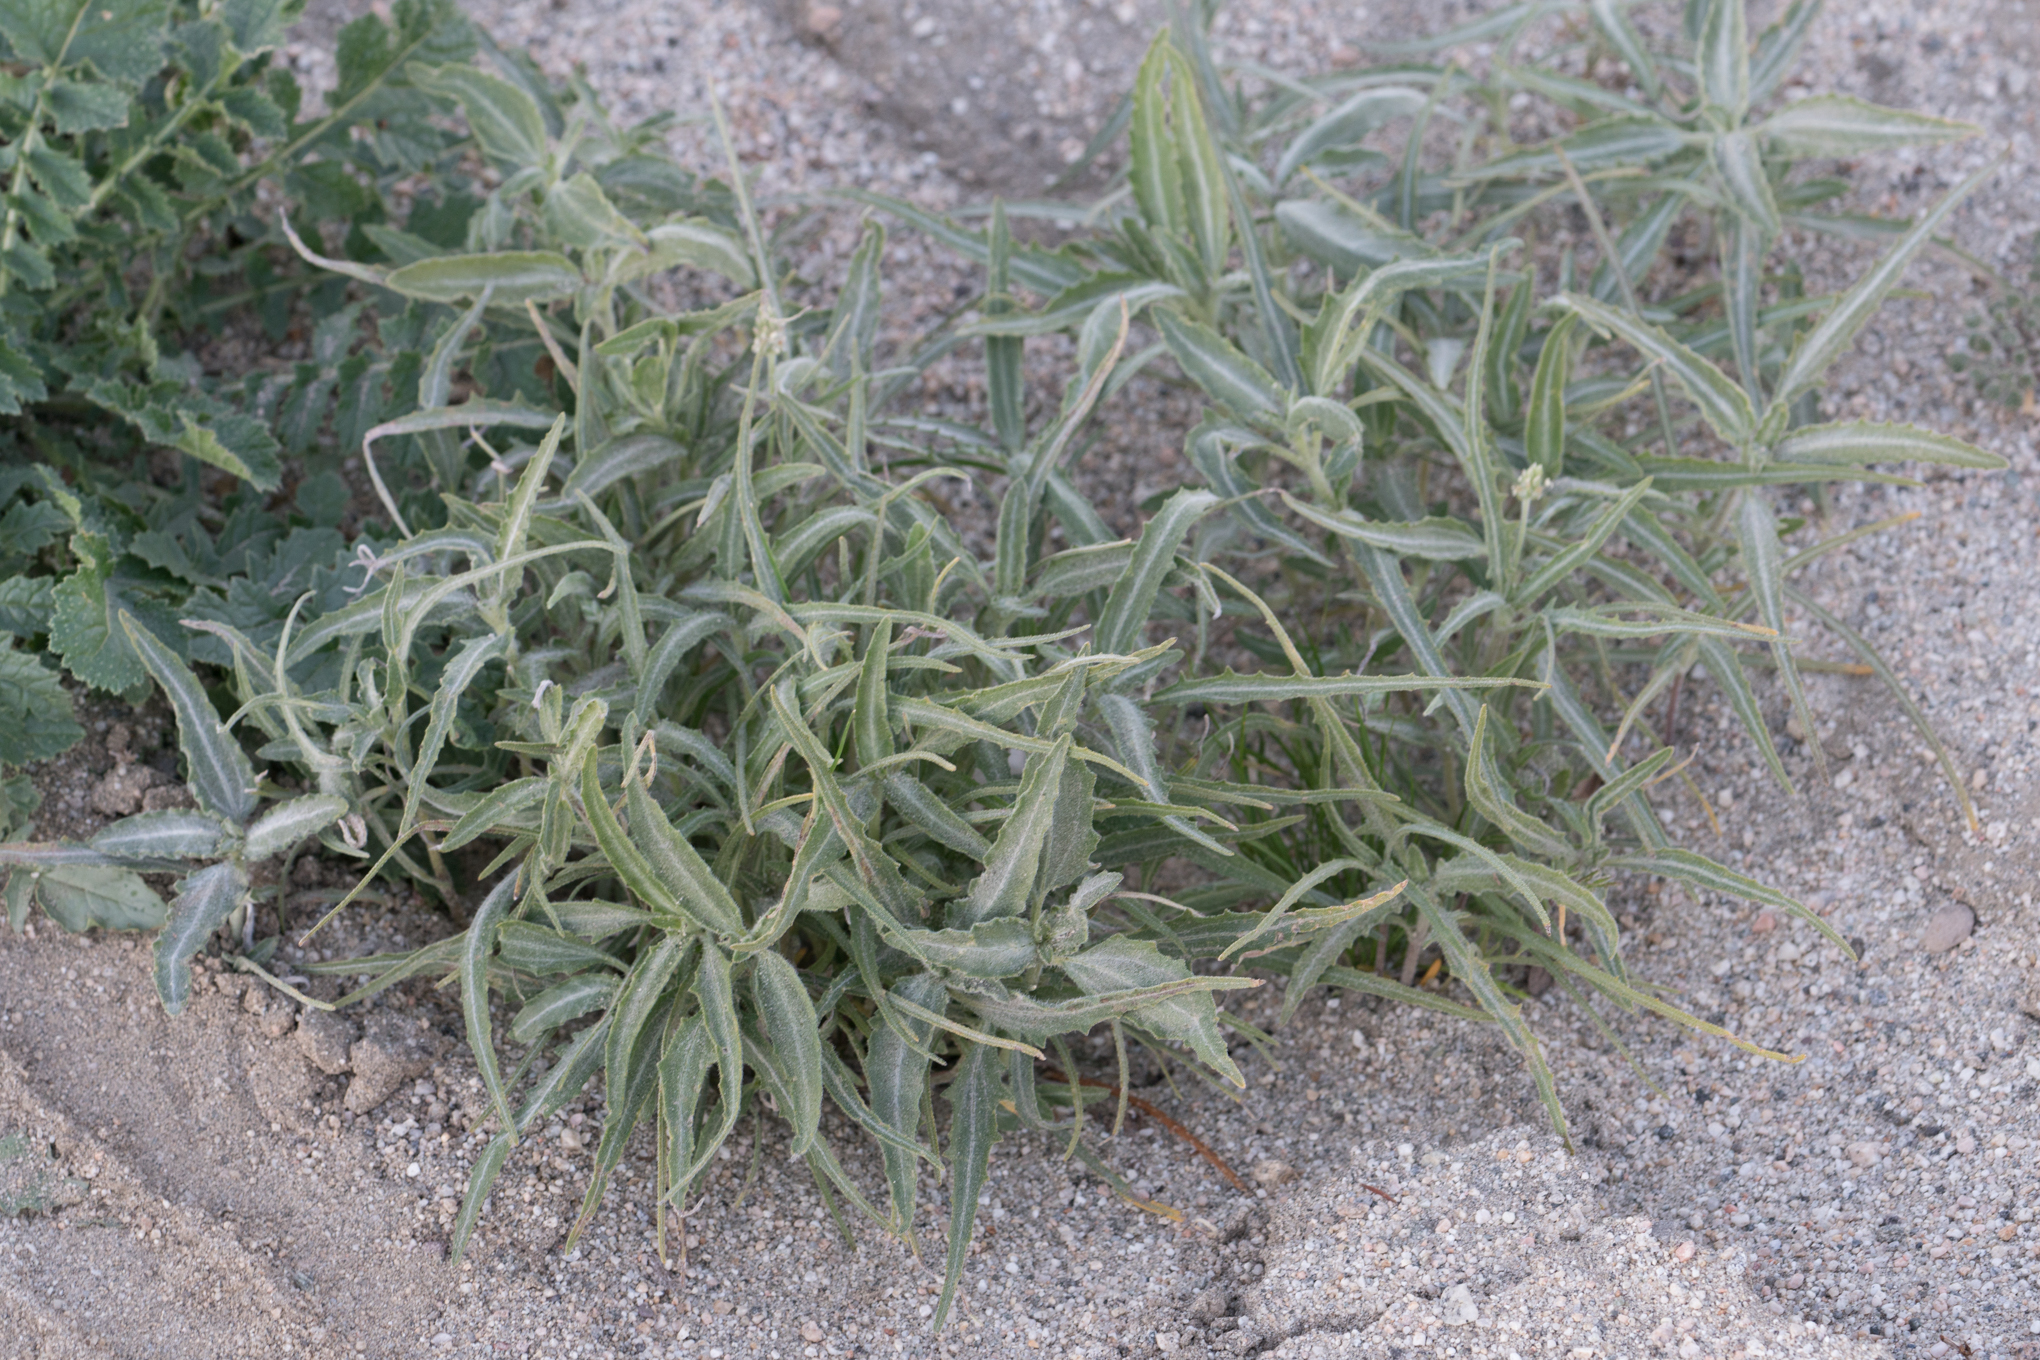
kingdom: Plantae
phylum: Tracheophyta
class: Magnoliopsida
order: Asterales
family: Asteraceae
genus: Dicoria
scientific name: Dicoria canescens
